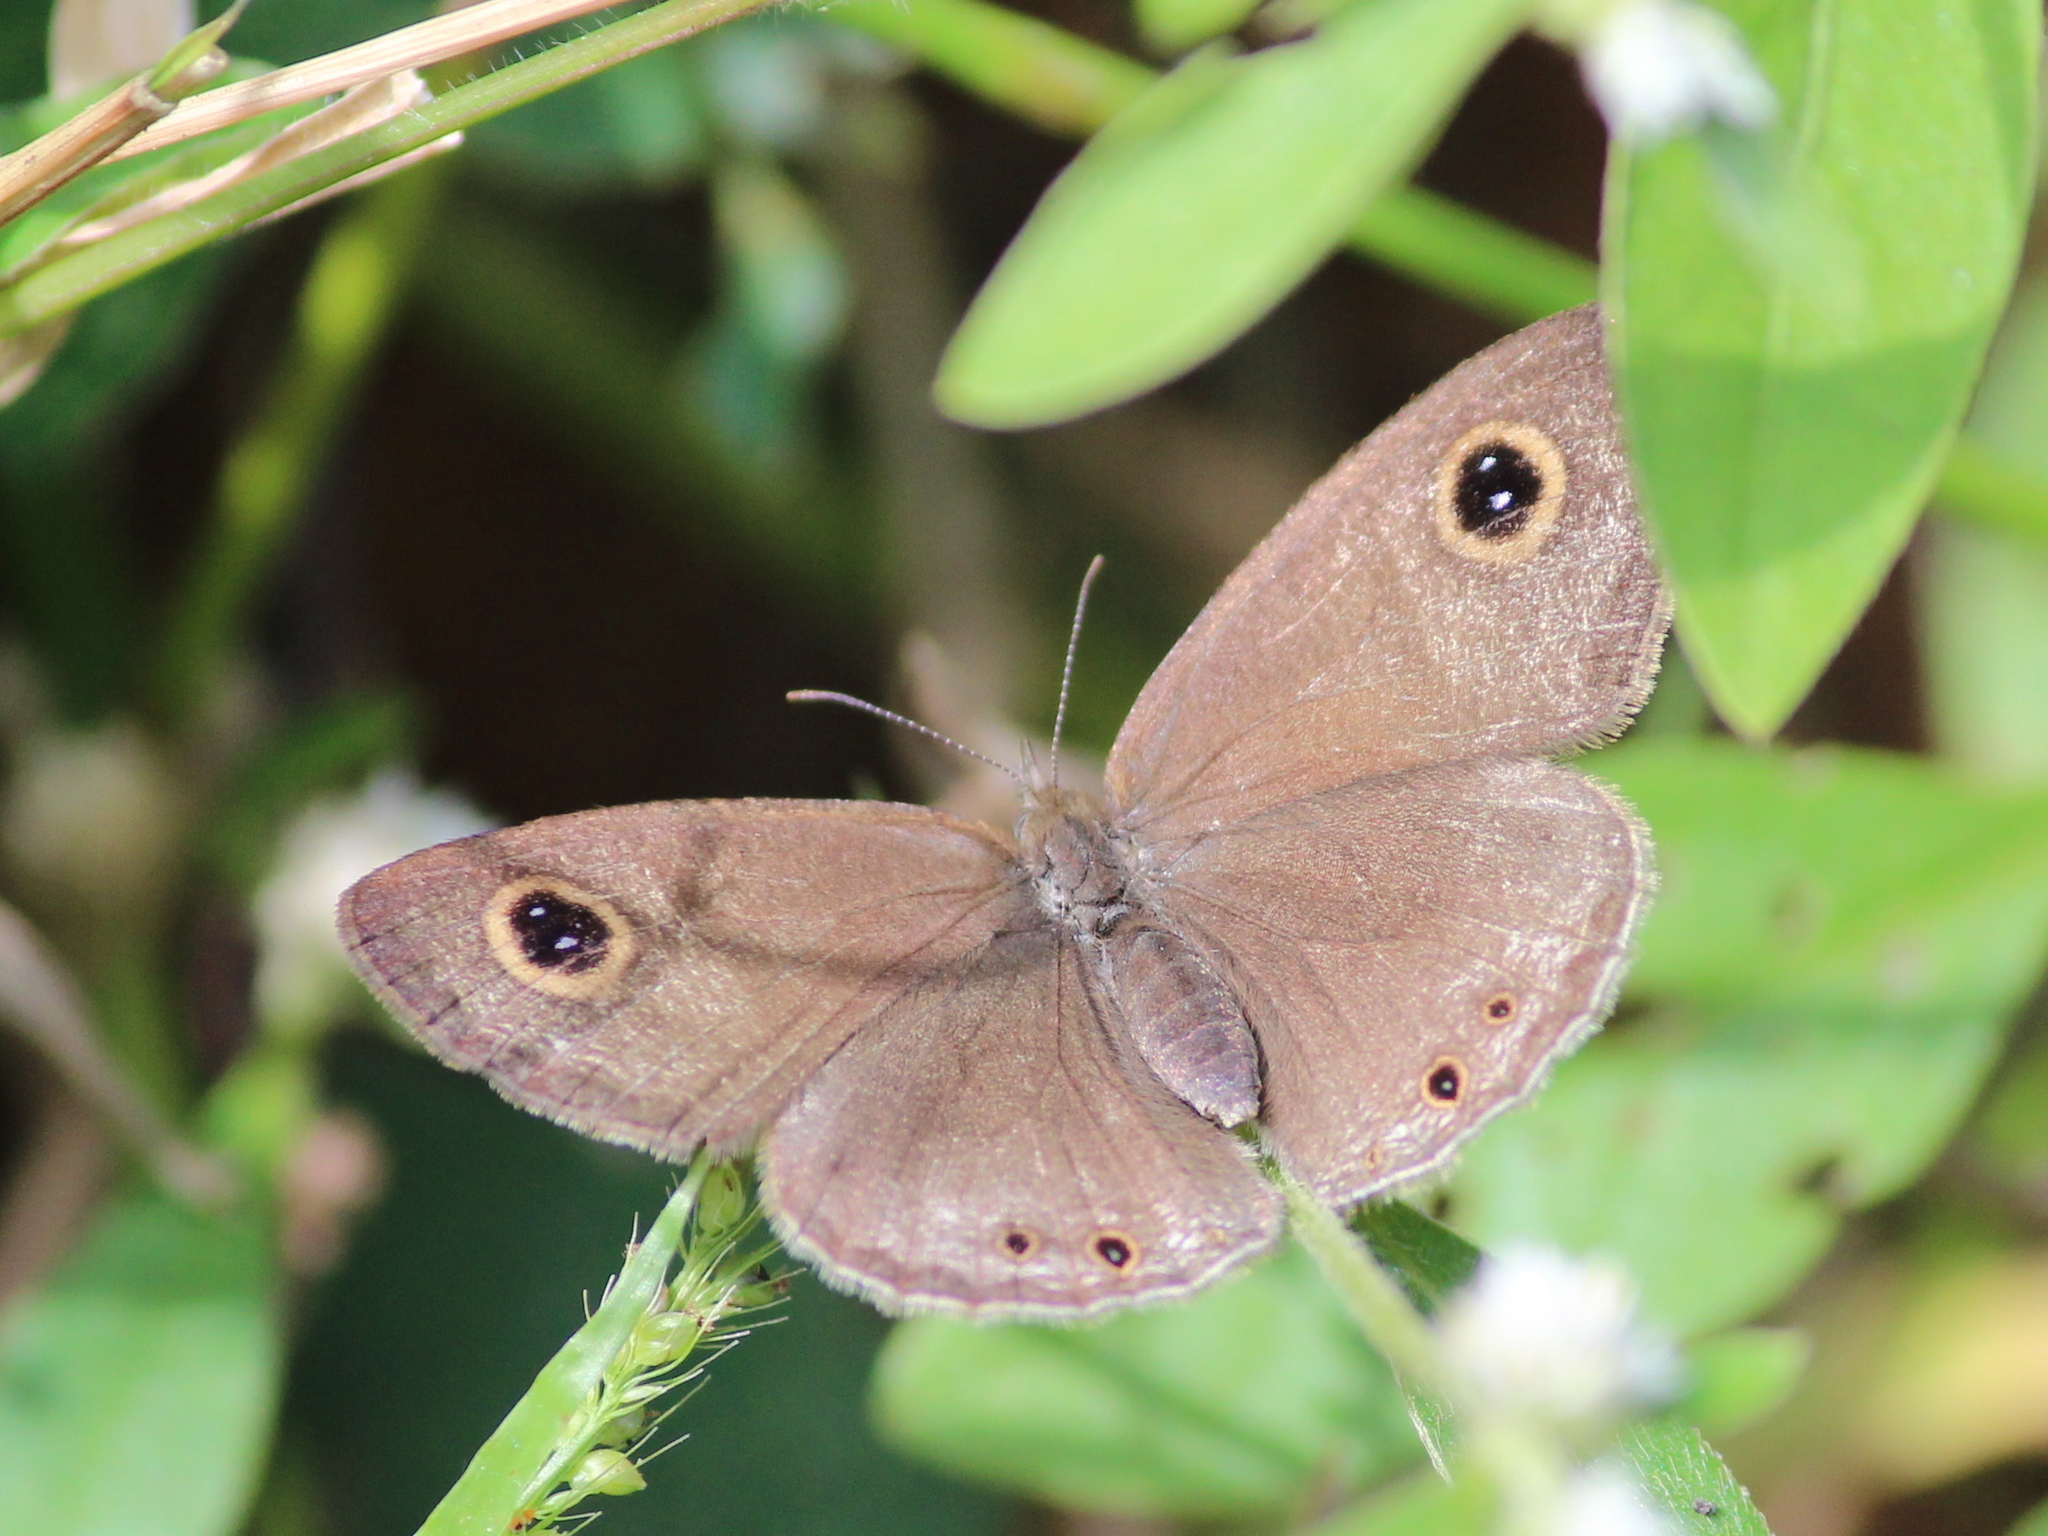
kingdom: Animalia
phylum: Arthropoda
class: Insecta
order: Lepidoptera
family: Nymphalidae
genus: Ypthima
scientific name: Ypthima huebneri
